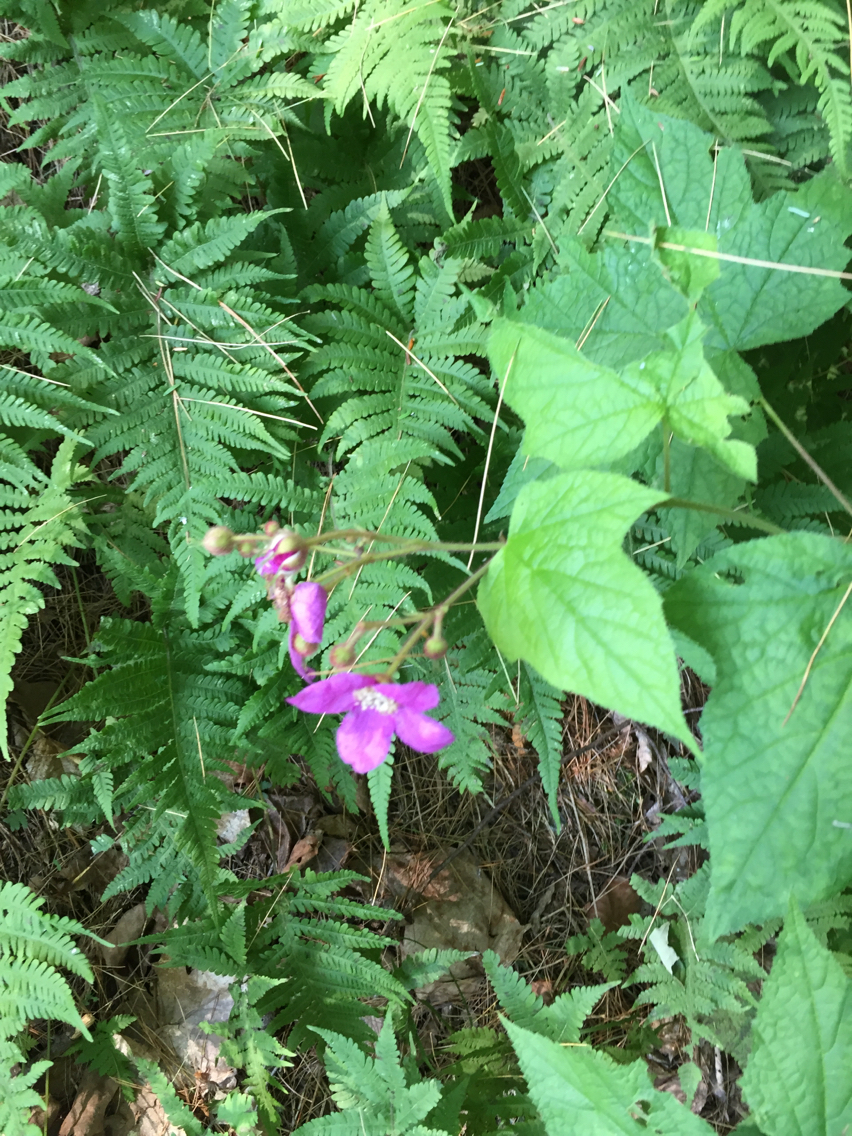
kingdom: Plantae
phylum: Tracheophyta
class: Magnoliopsida
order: Rosales
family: Rosaceae
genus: Rubus
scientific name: Rubus odoratus
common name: Purple-flowered raspberry
